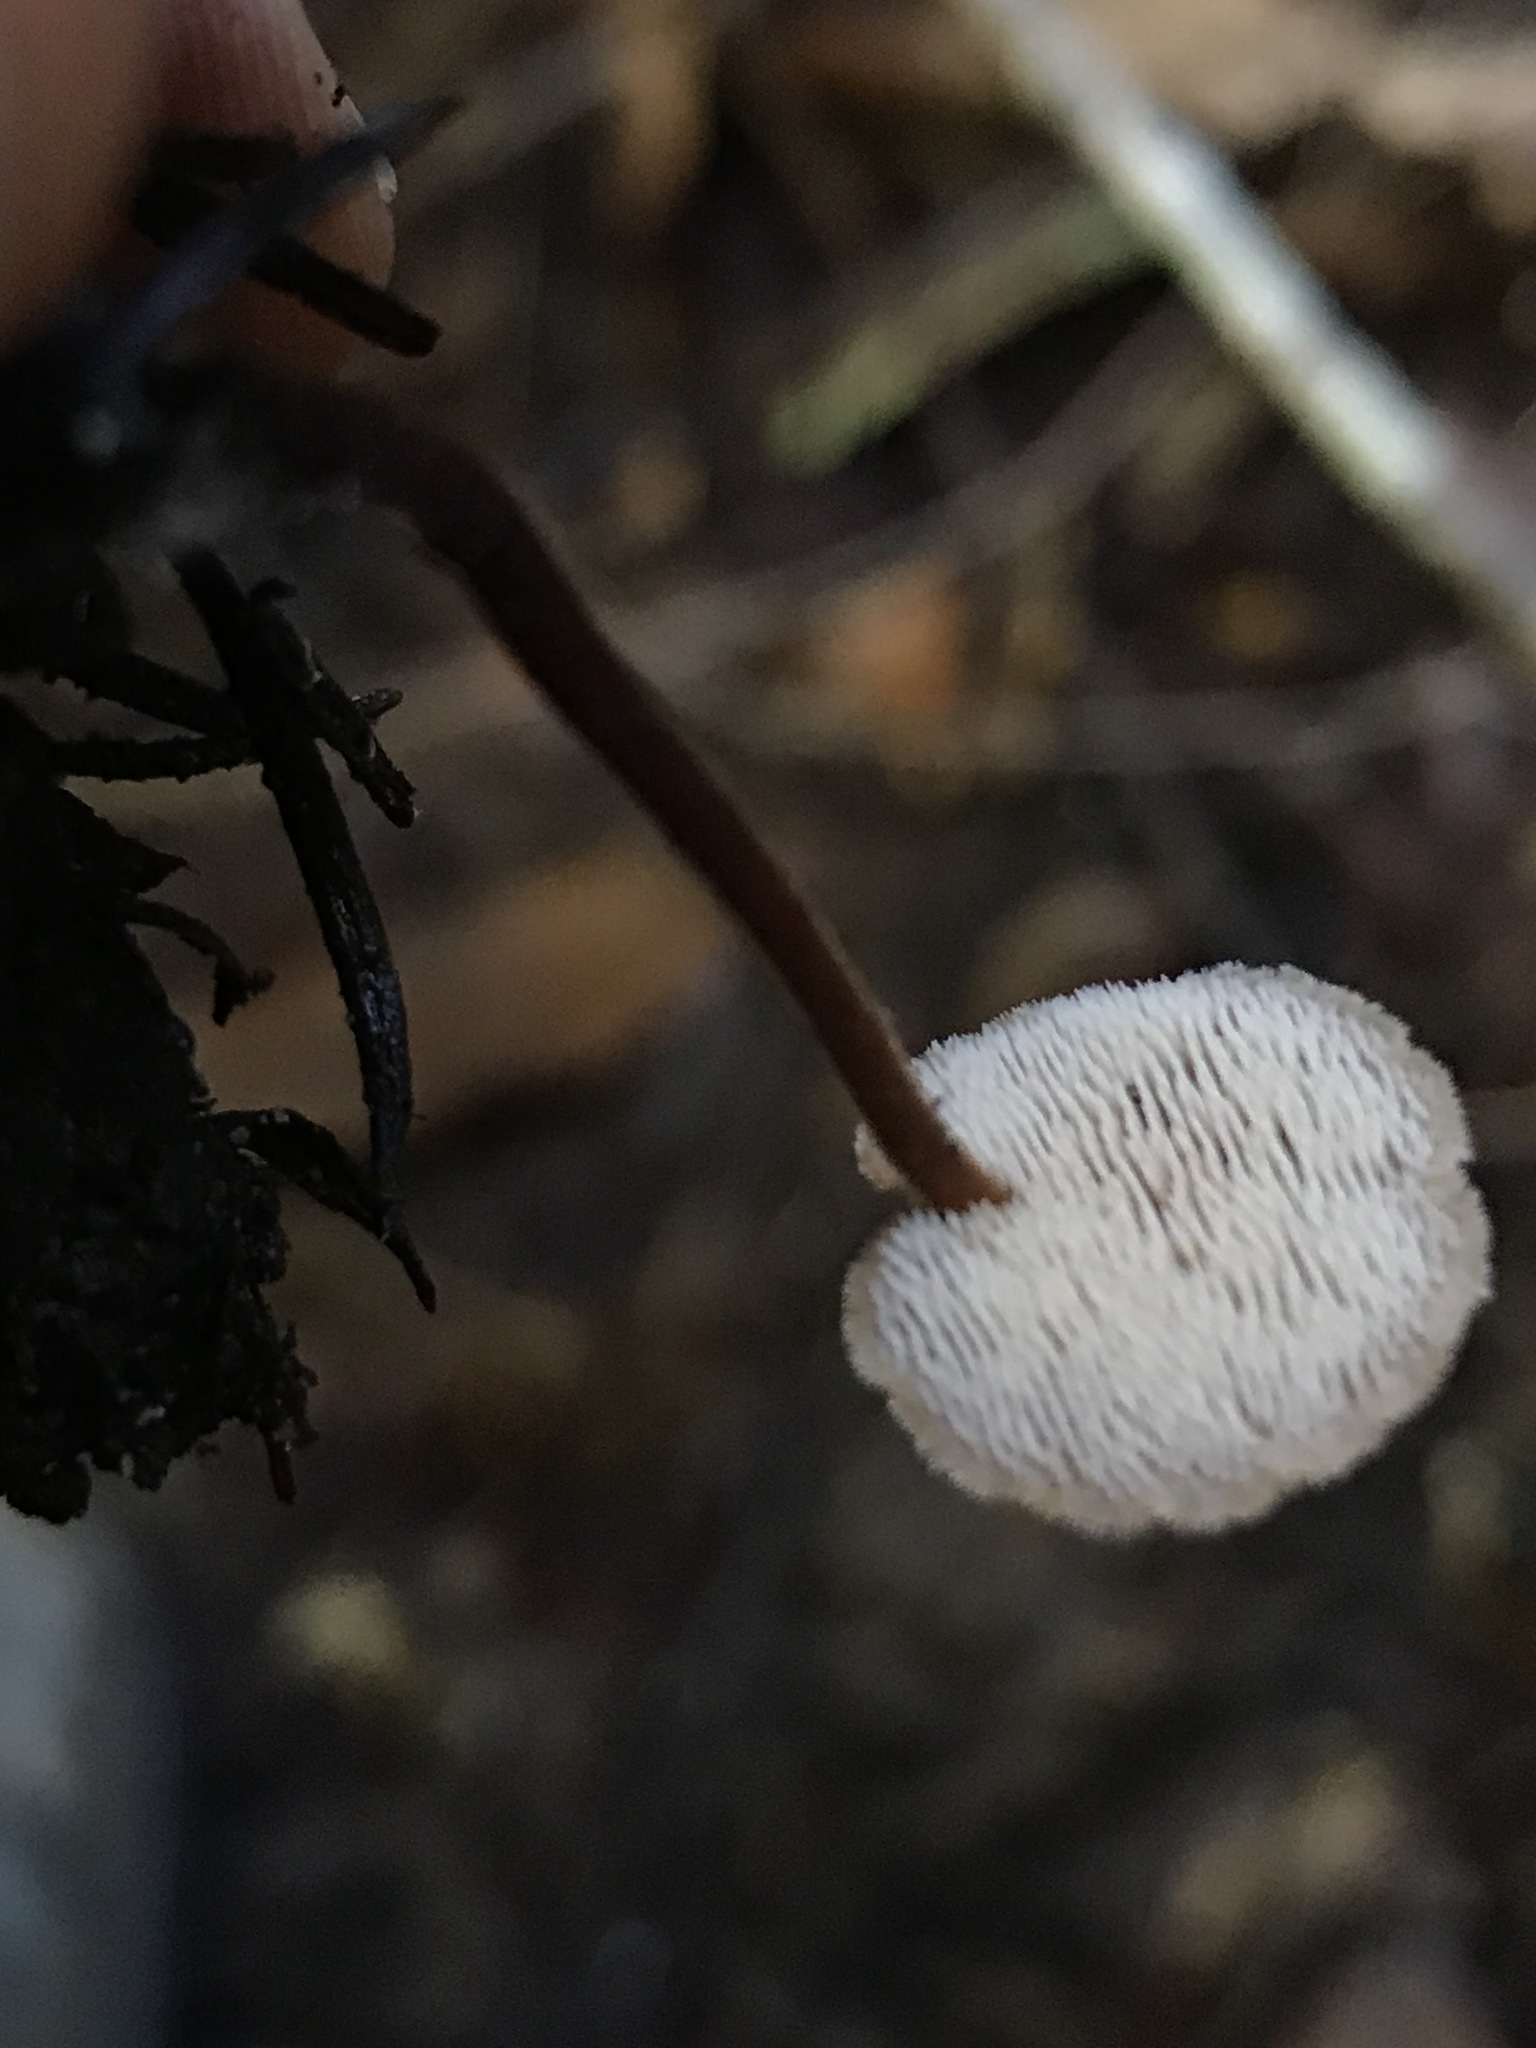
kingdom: Fungi
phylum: Basidiomycota
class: Agaricomycetes
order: Russulales
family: Auriscalpiaceae
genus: Auriscalpium
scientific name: Auriscalpium vulgare
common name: Earpick fungus
